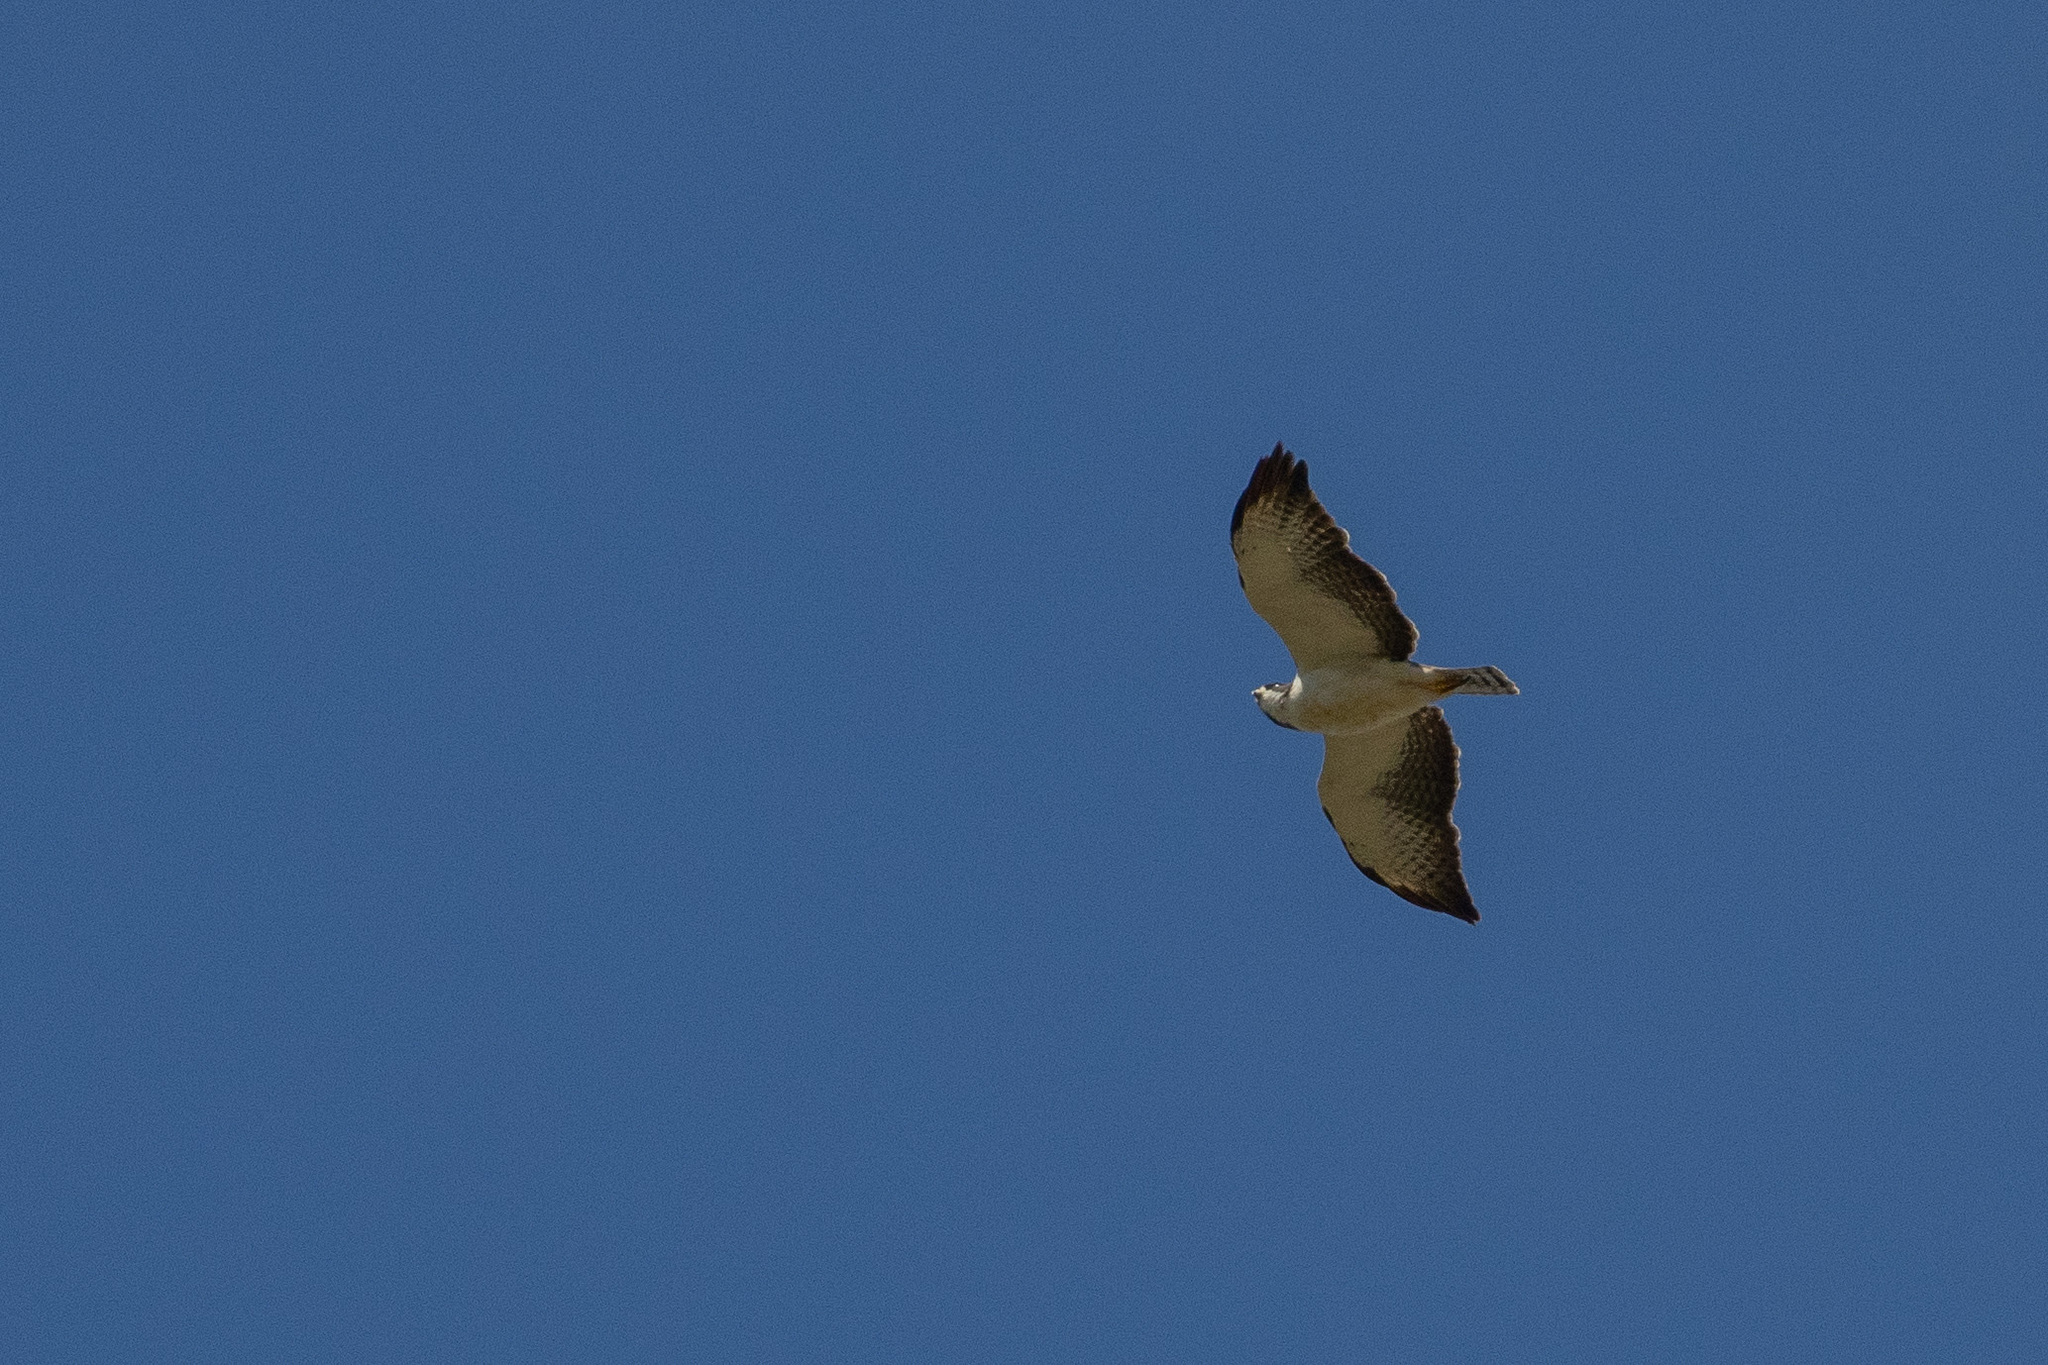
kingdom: Animalia
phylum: Chordata
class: Aves
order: Accipitriformes
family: Accipitridae
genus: Buteo
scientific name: Buteo brachyurus
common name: Short-tailed hawk
